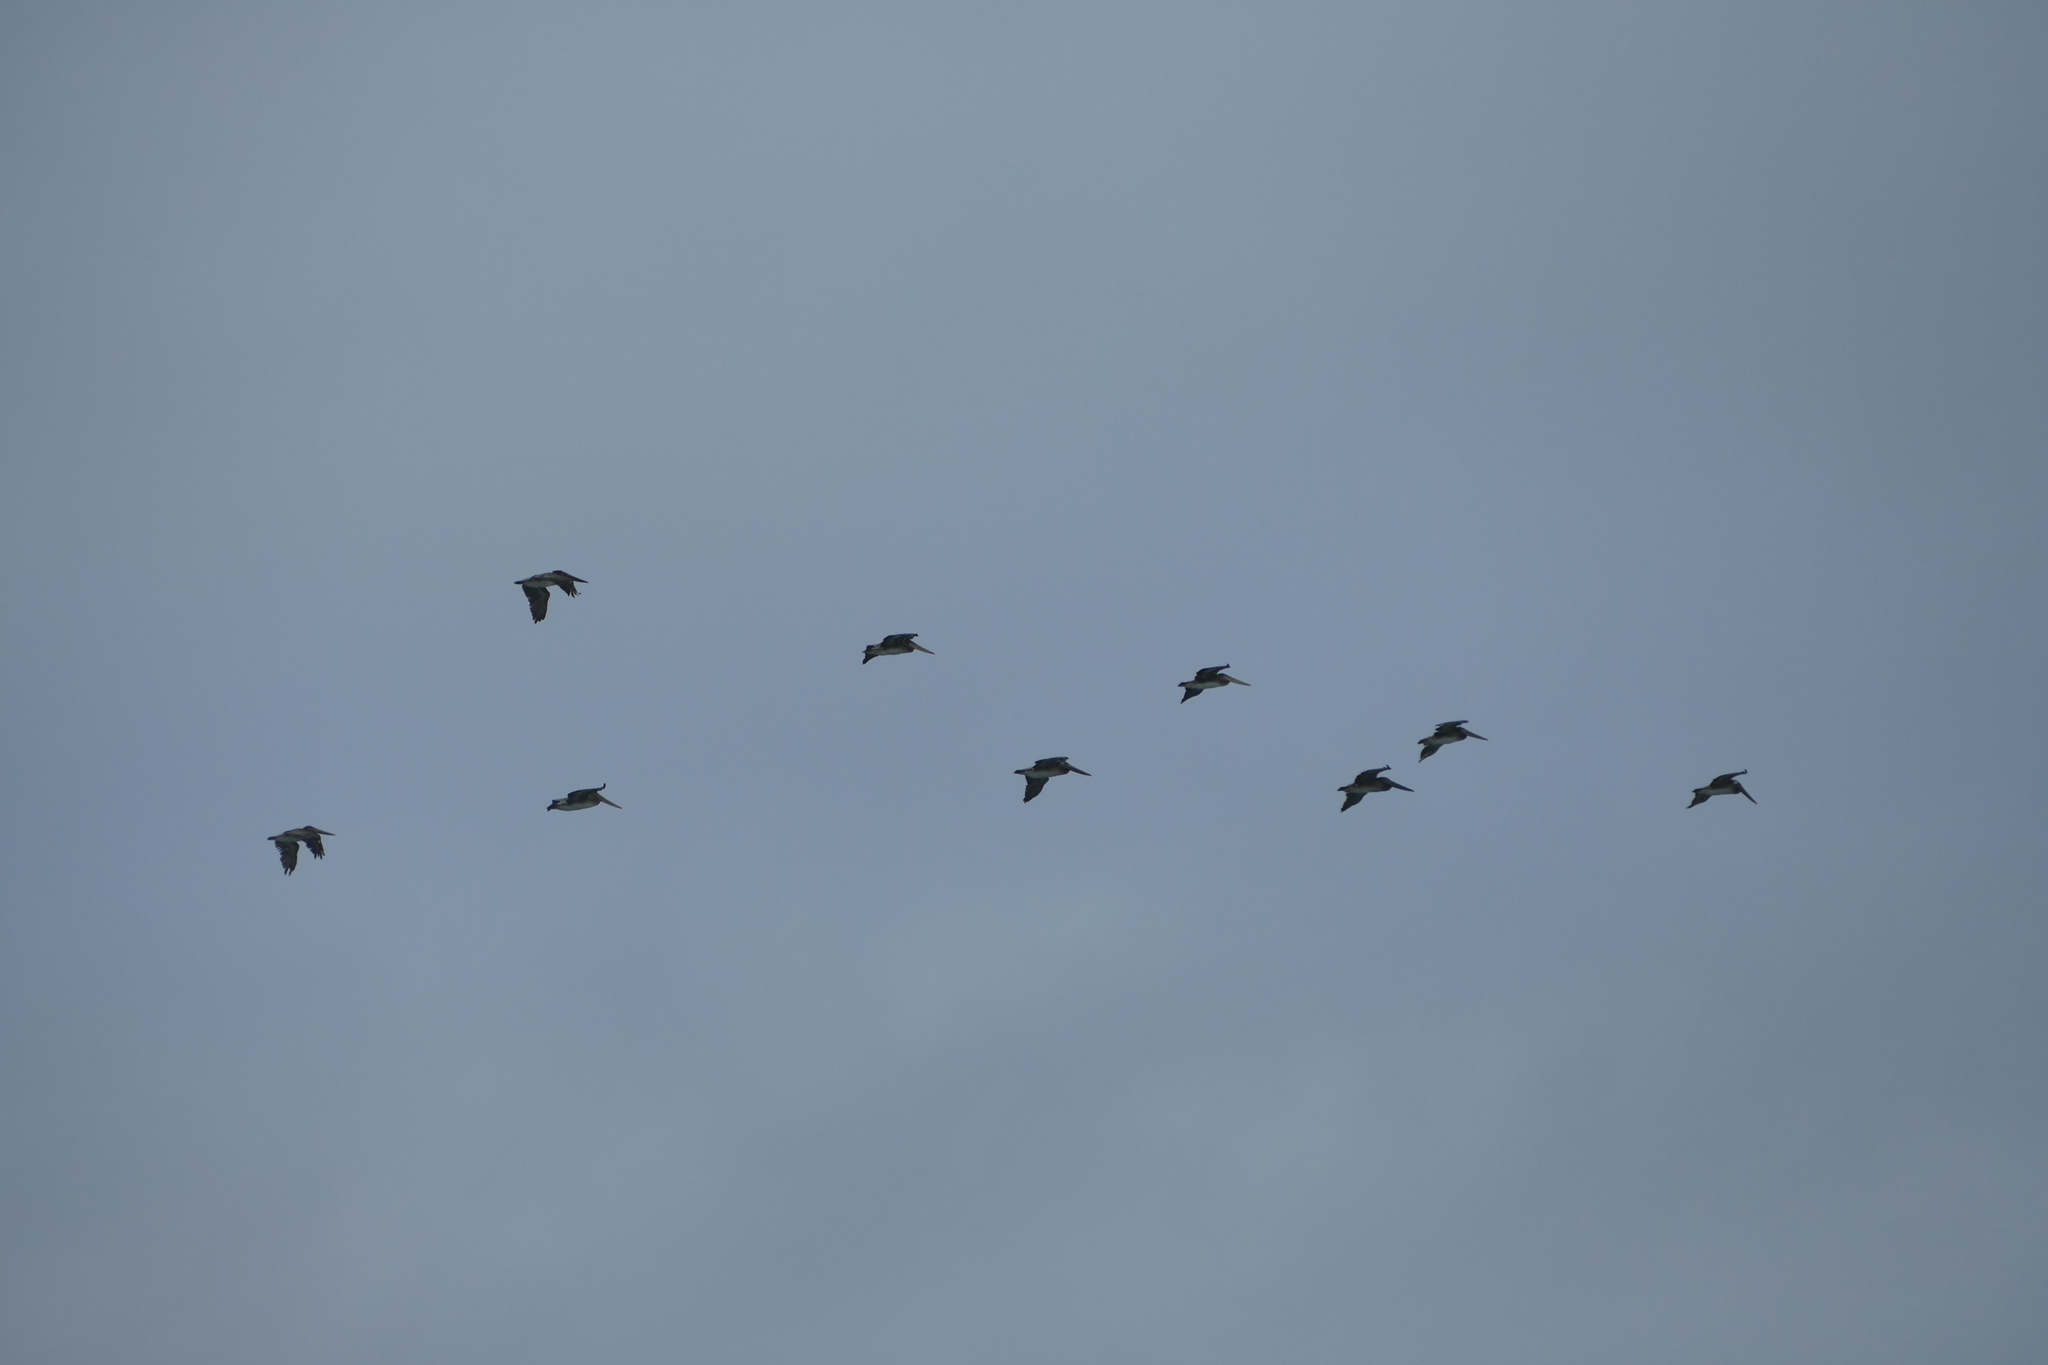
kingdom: Animalia
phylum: Chordata
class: Aves
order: Pelecaniformes
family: Pelecanidae
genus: Pelecanus
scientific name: Pelecanus occidentalis
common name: Brown pelican
